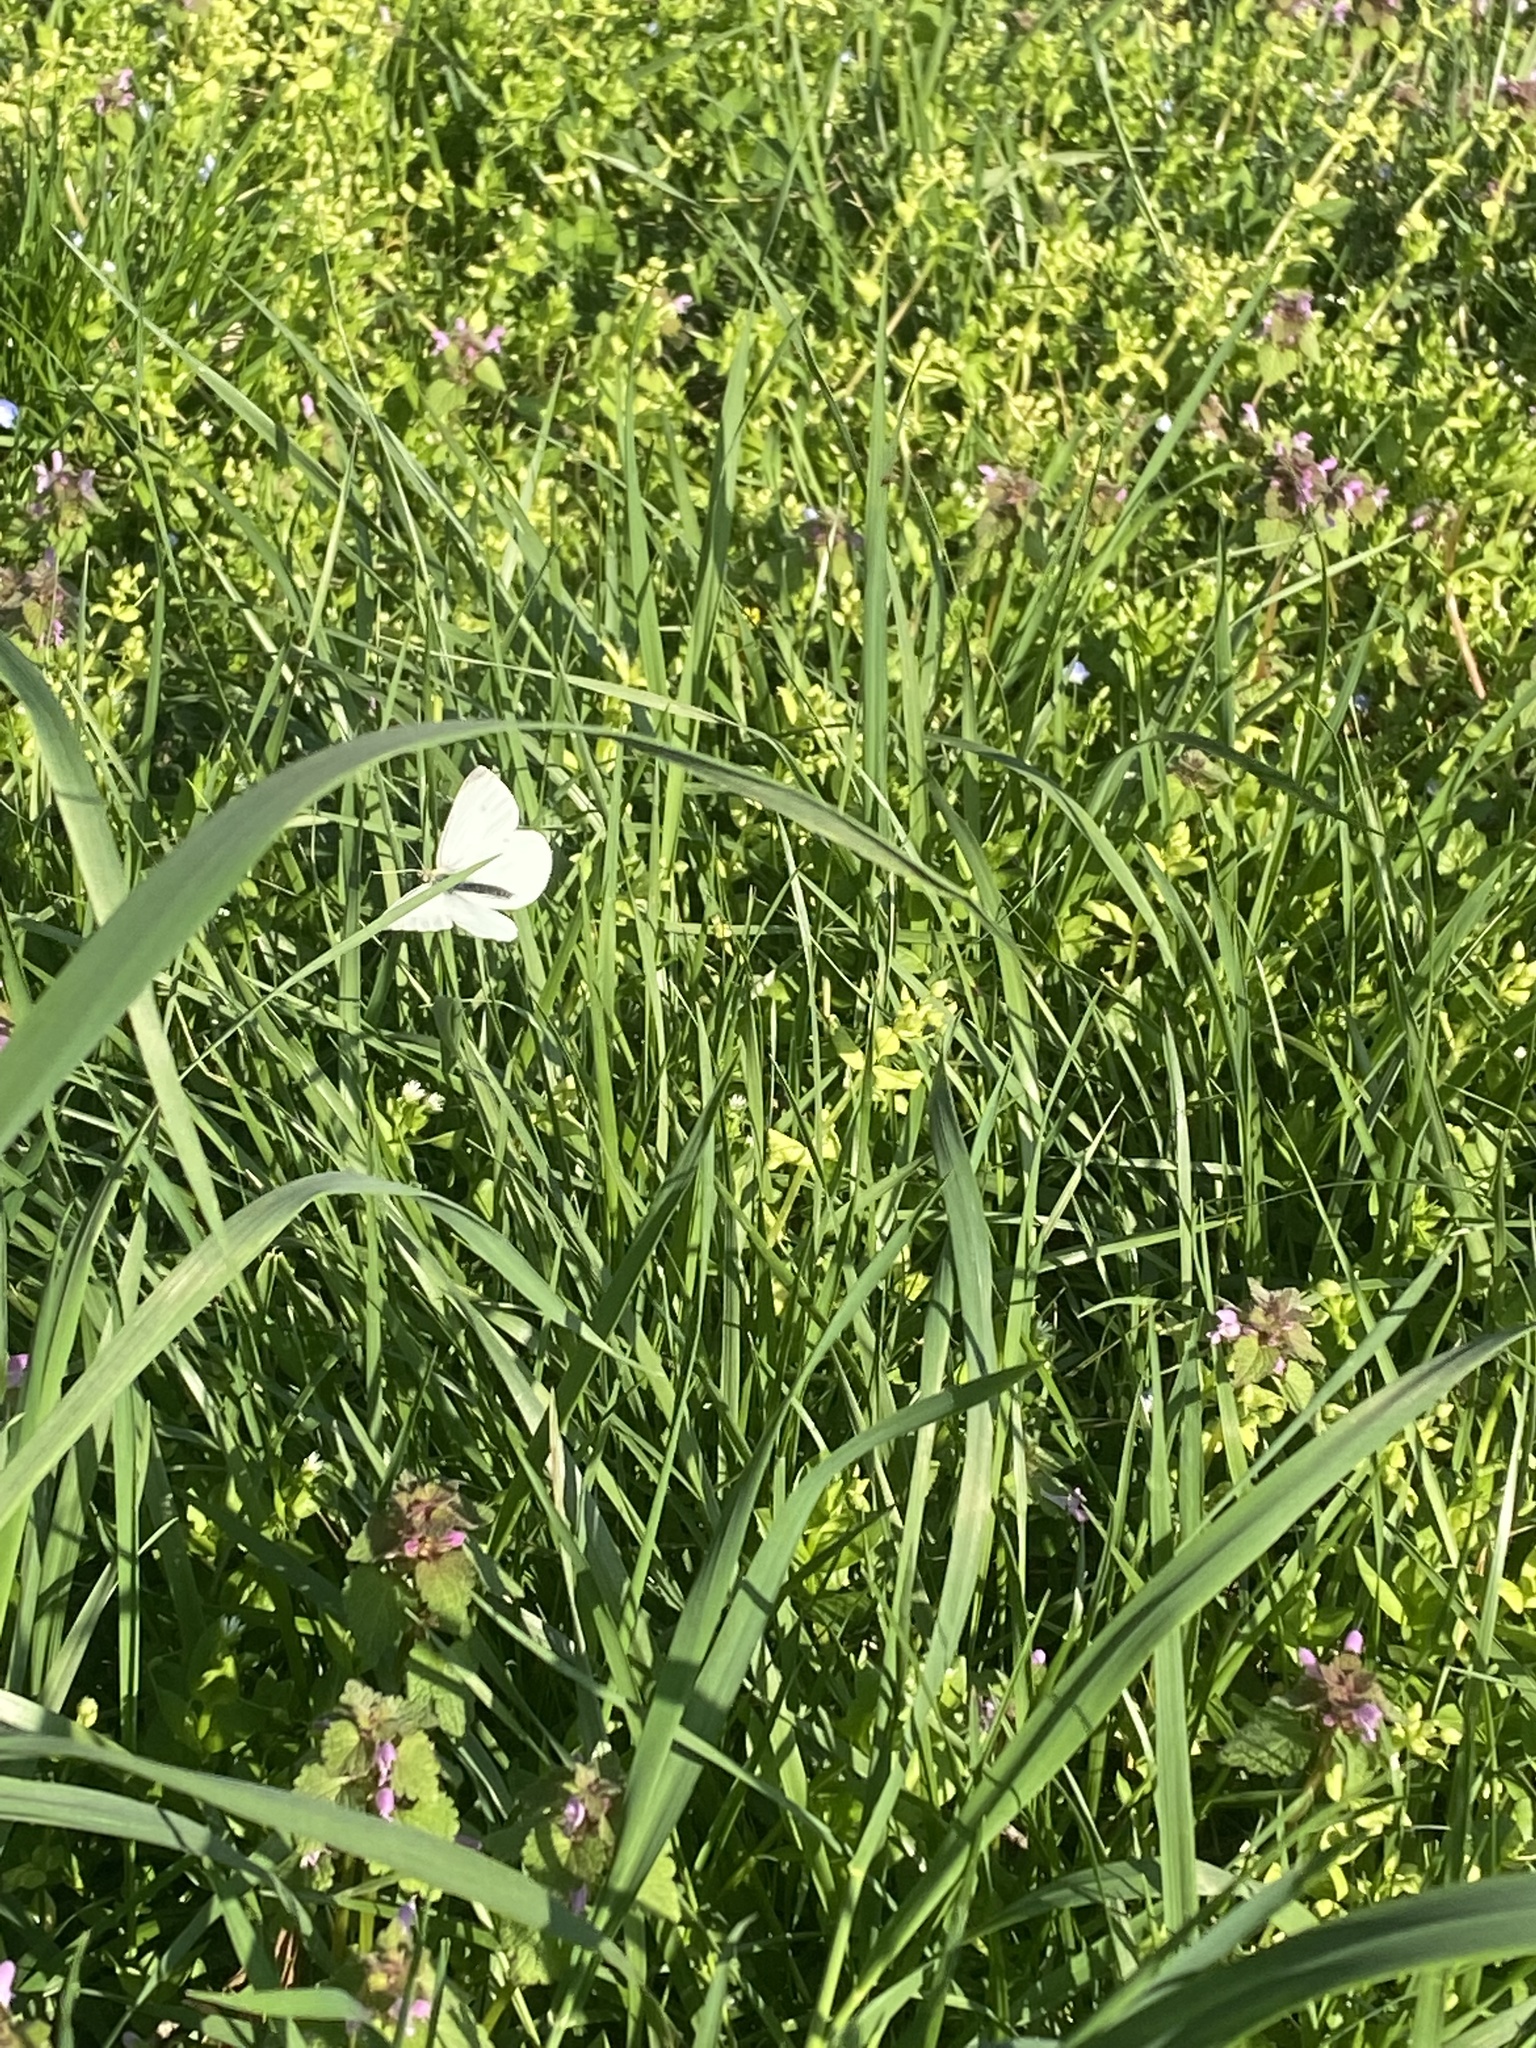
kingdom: Animalia
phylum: Arthropoda
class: Insecta
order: Lepidoptera
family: Pieridae
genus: Pieris
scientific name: Pieris rapae
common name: Small white
